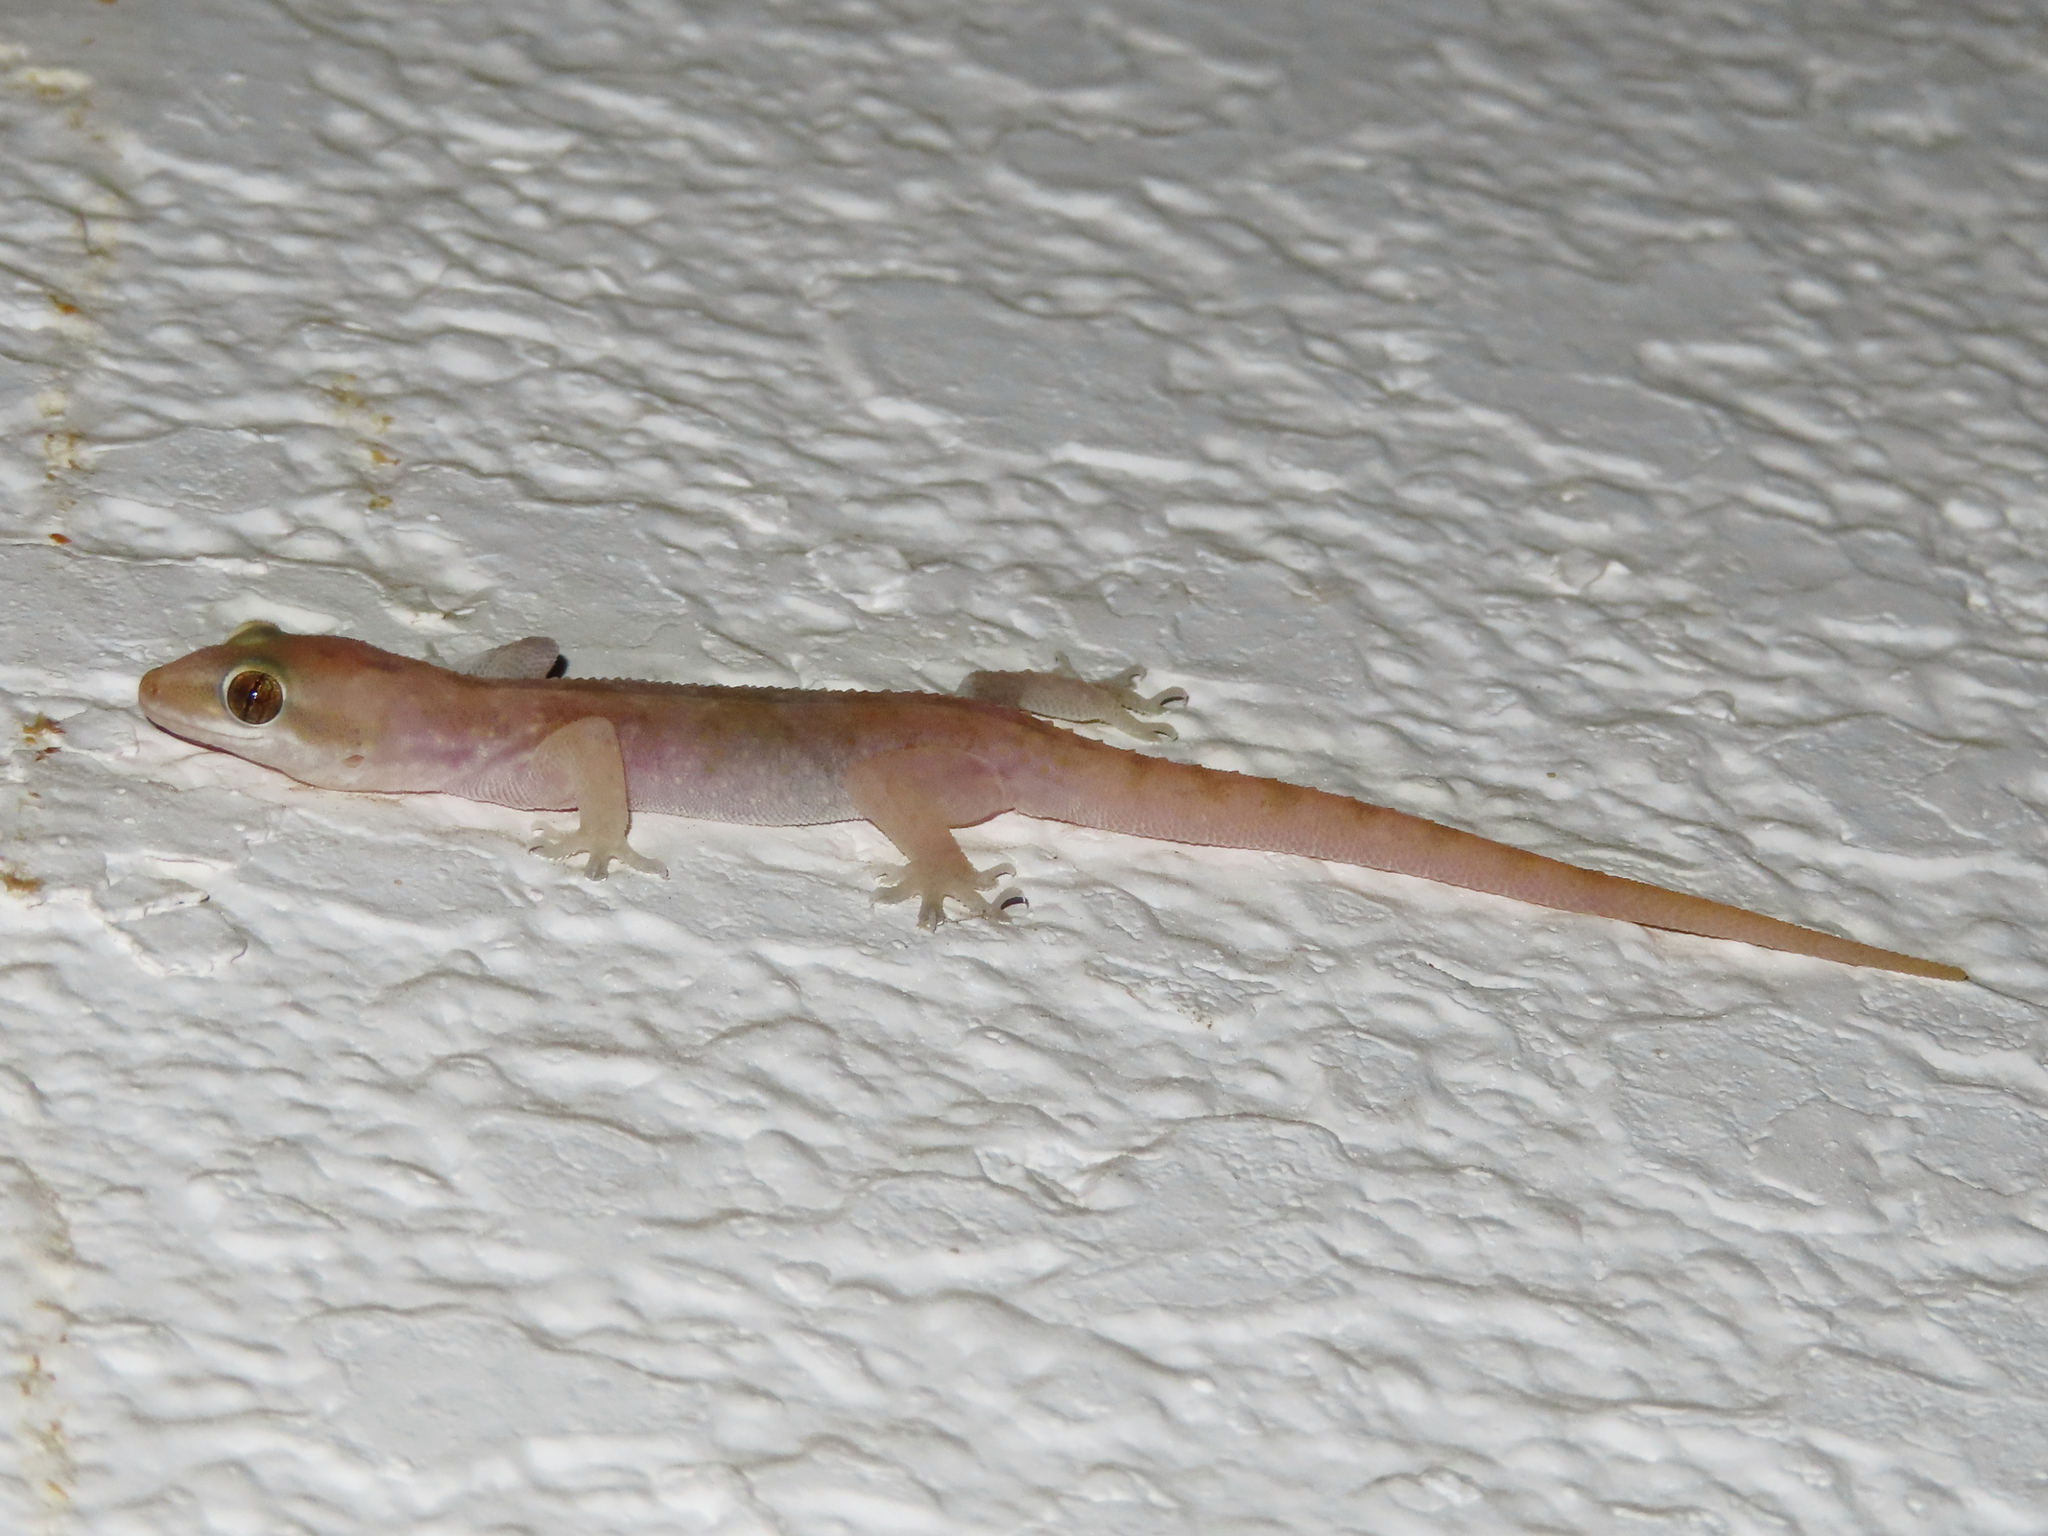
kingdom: Animalia
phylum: Chordata
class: Squamata
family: Gekkonidae
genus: Hemidactylus
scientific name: Hemidactylus robustus
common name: Heyden’s gecko
